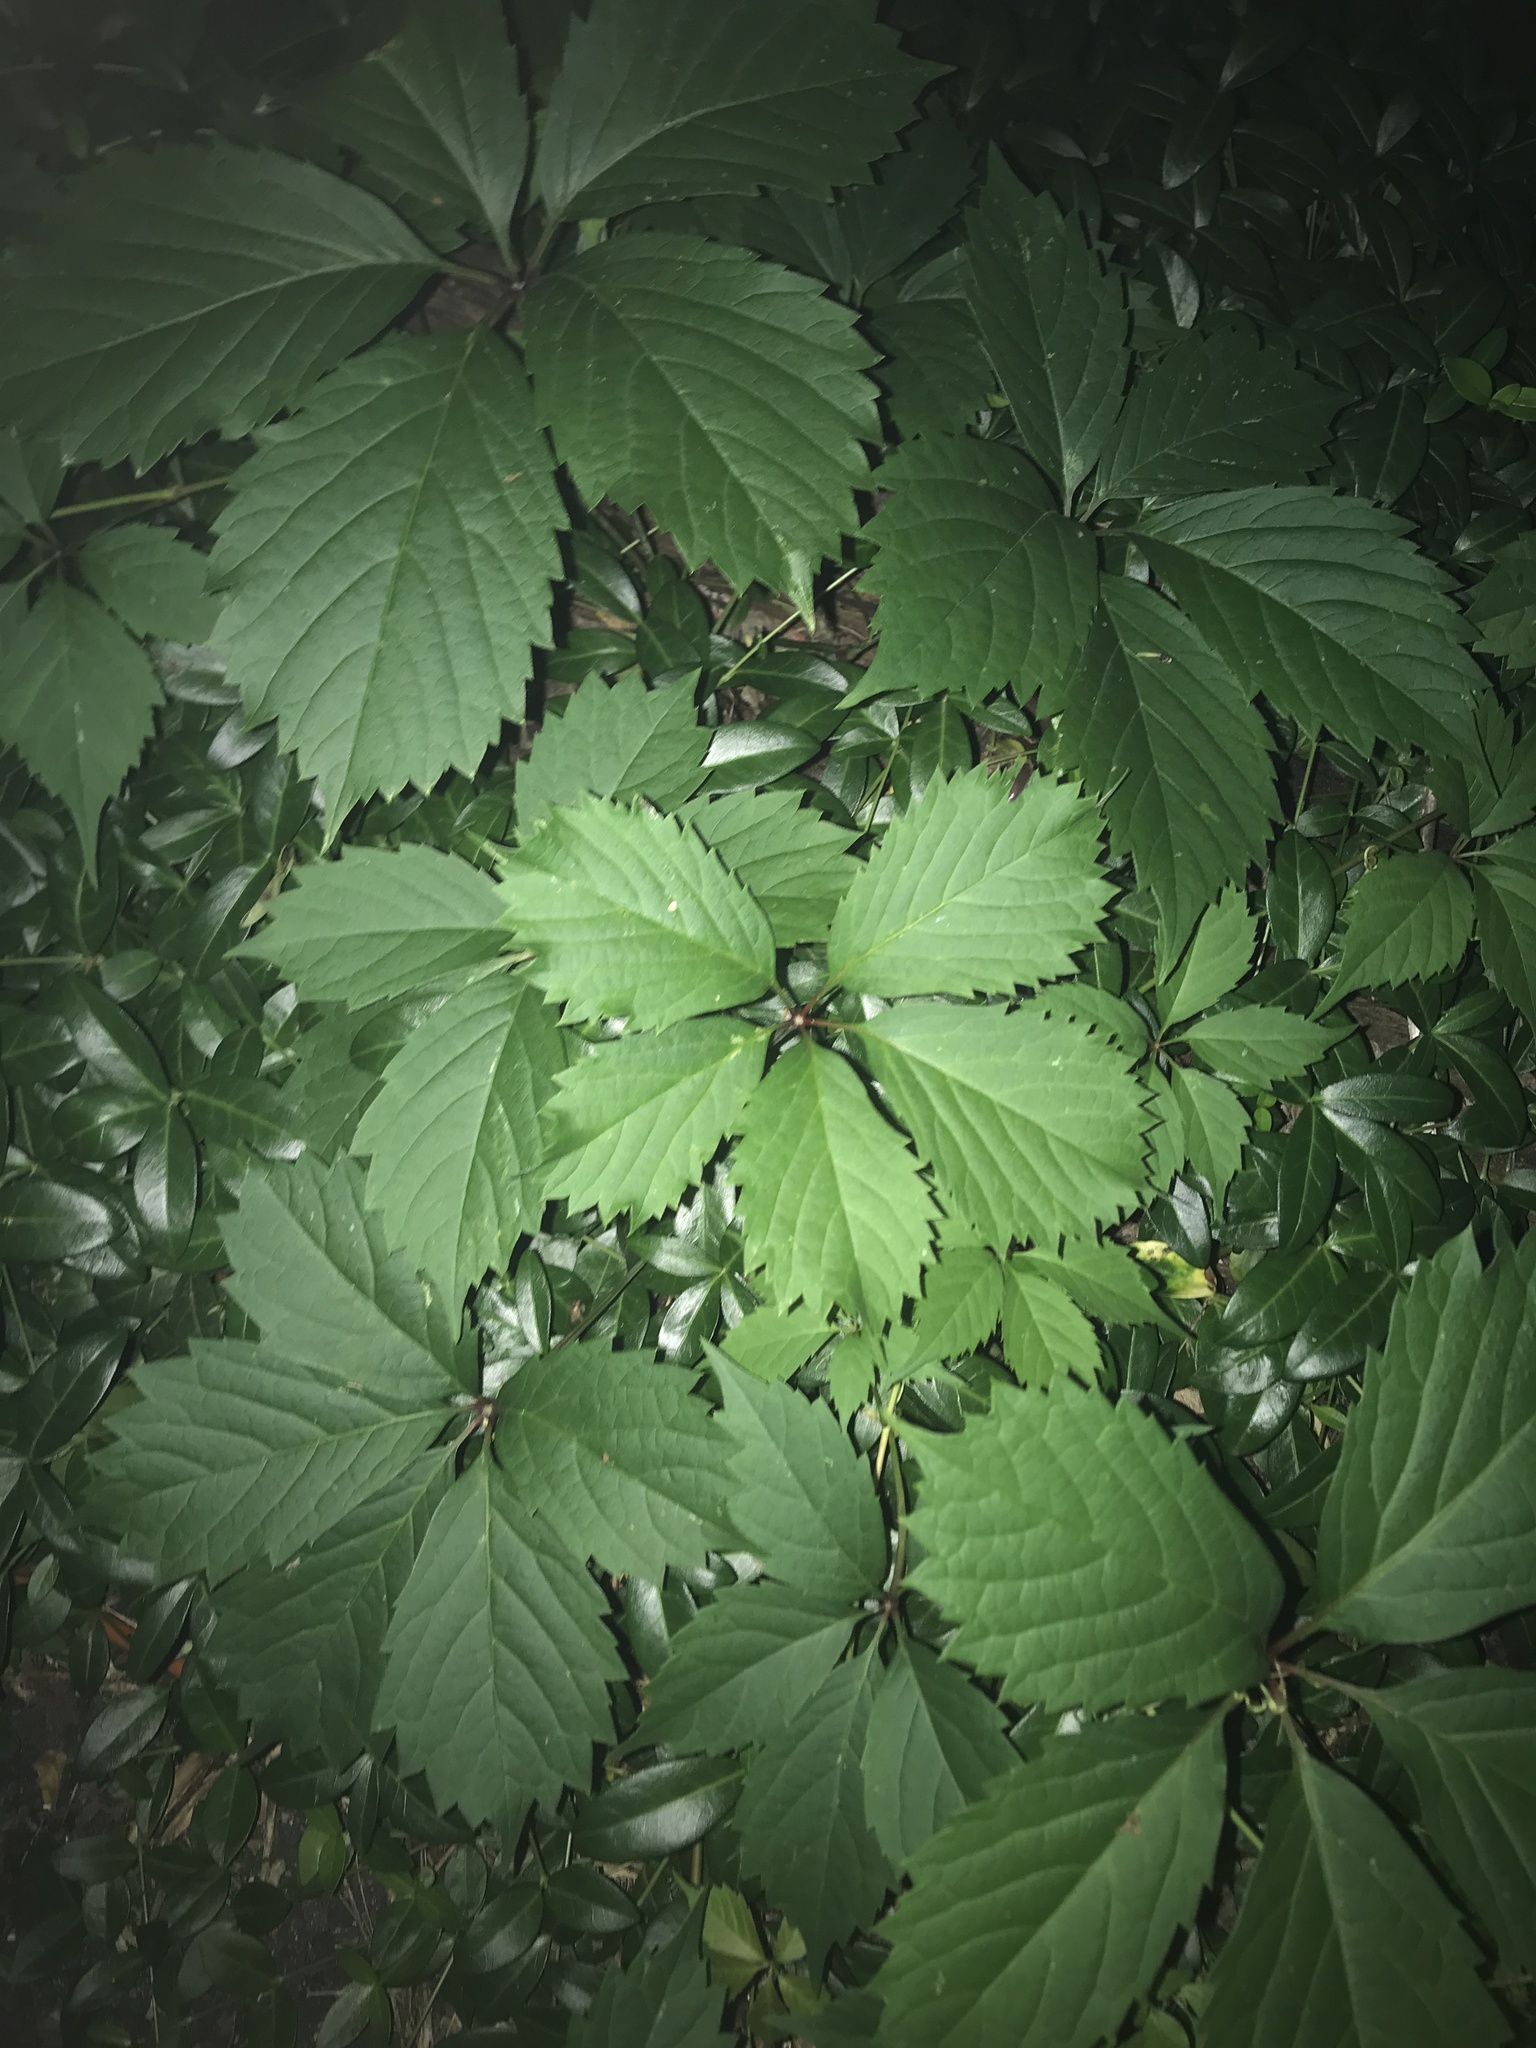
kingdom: Plantae
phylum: Tracheophyta
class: Magnoliopsida
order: Vitales
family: Vitaceae
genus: Parthenocissus
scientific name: Parthenocissus inserta
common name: False virginia-creeper
